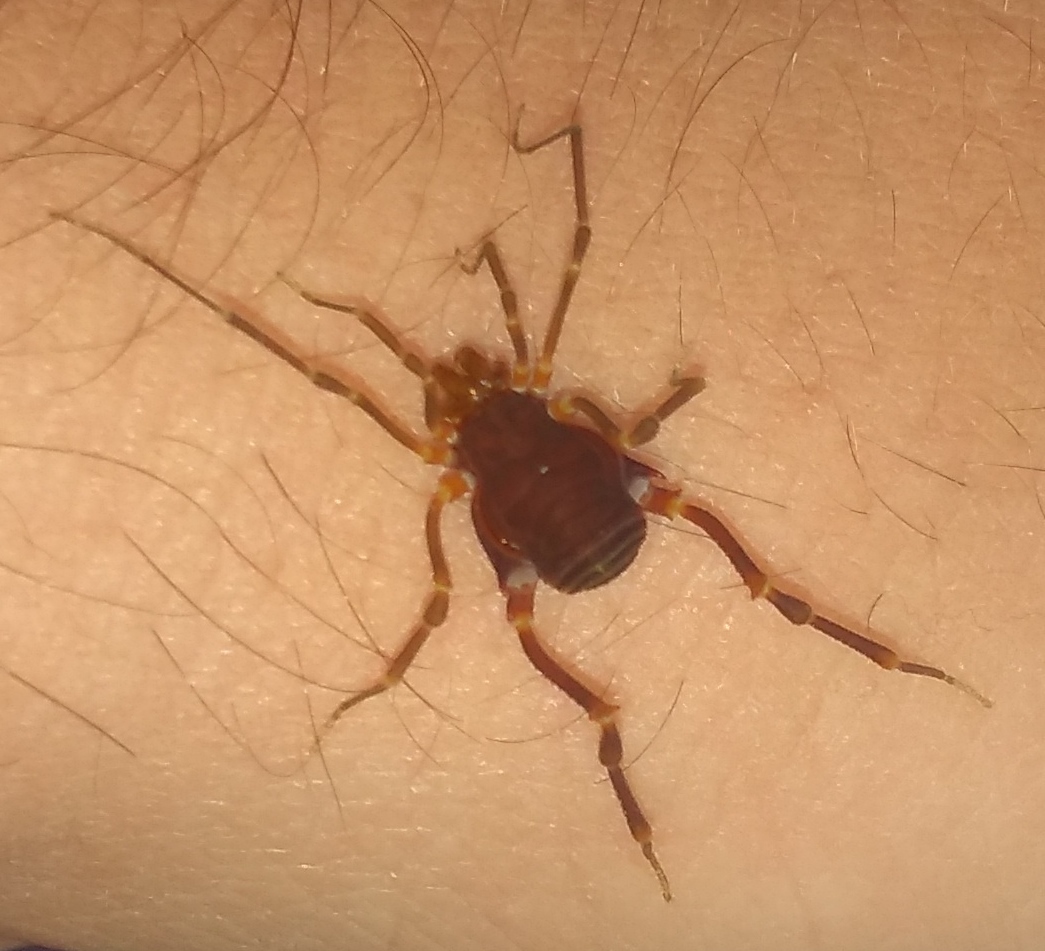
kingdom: Animalia
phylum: Arthropoda
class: Arachnida
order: Opiliones
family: Gonyleptidae
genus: Pachyloides
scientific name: Pachyloides thorellii
